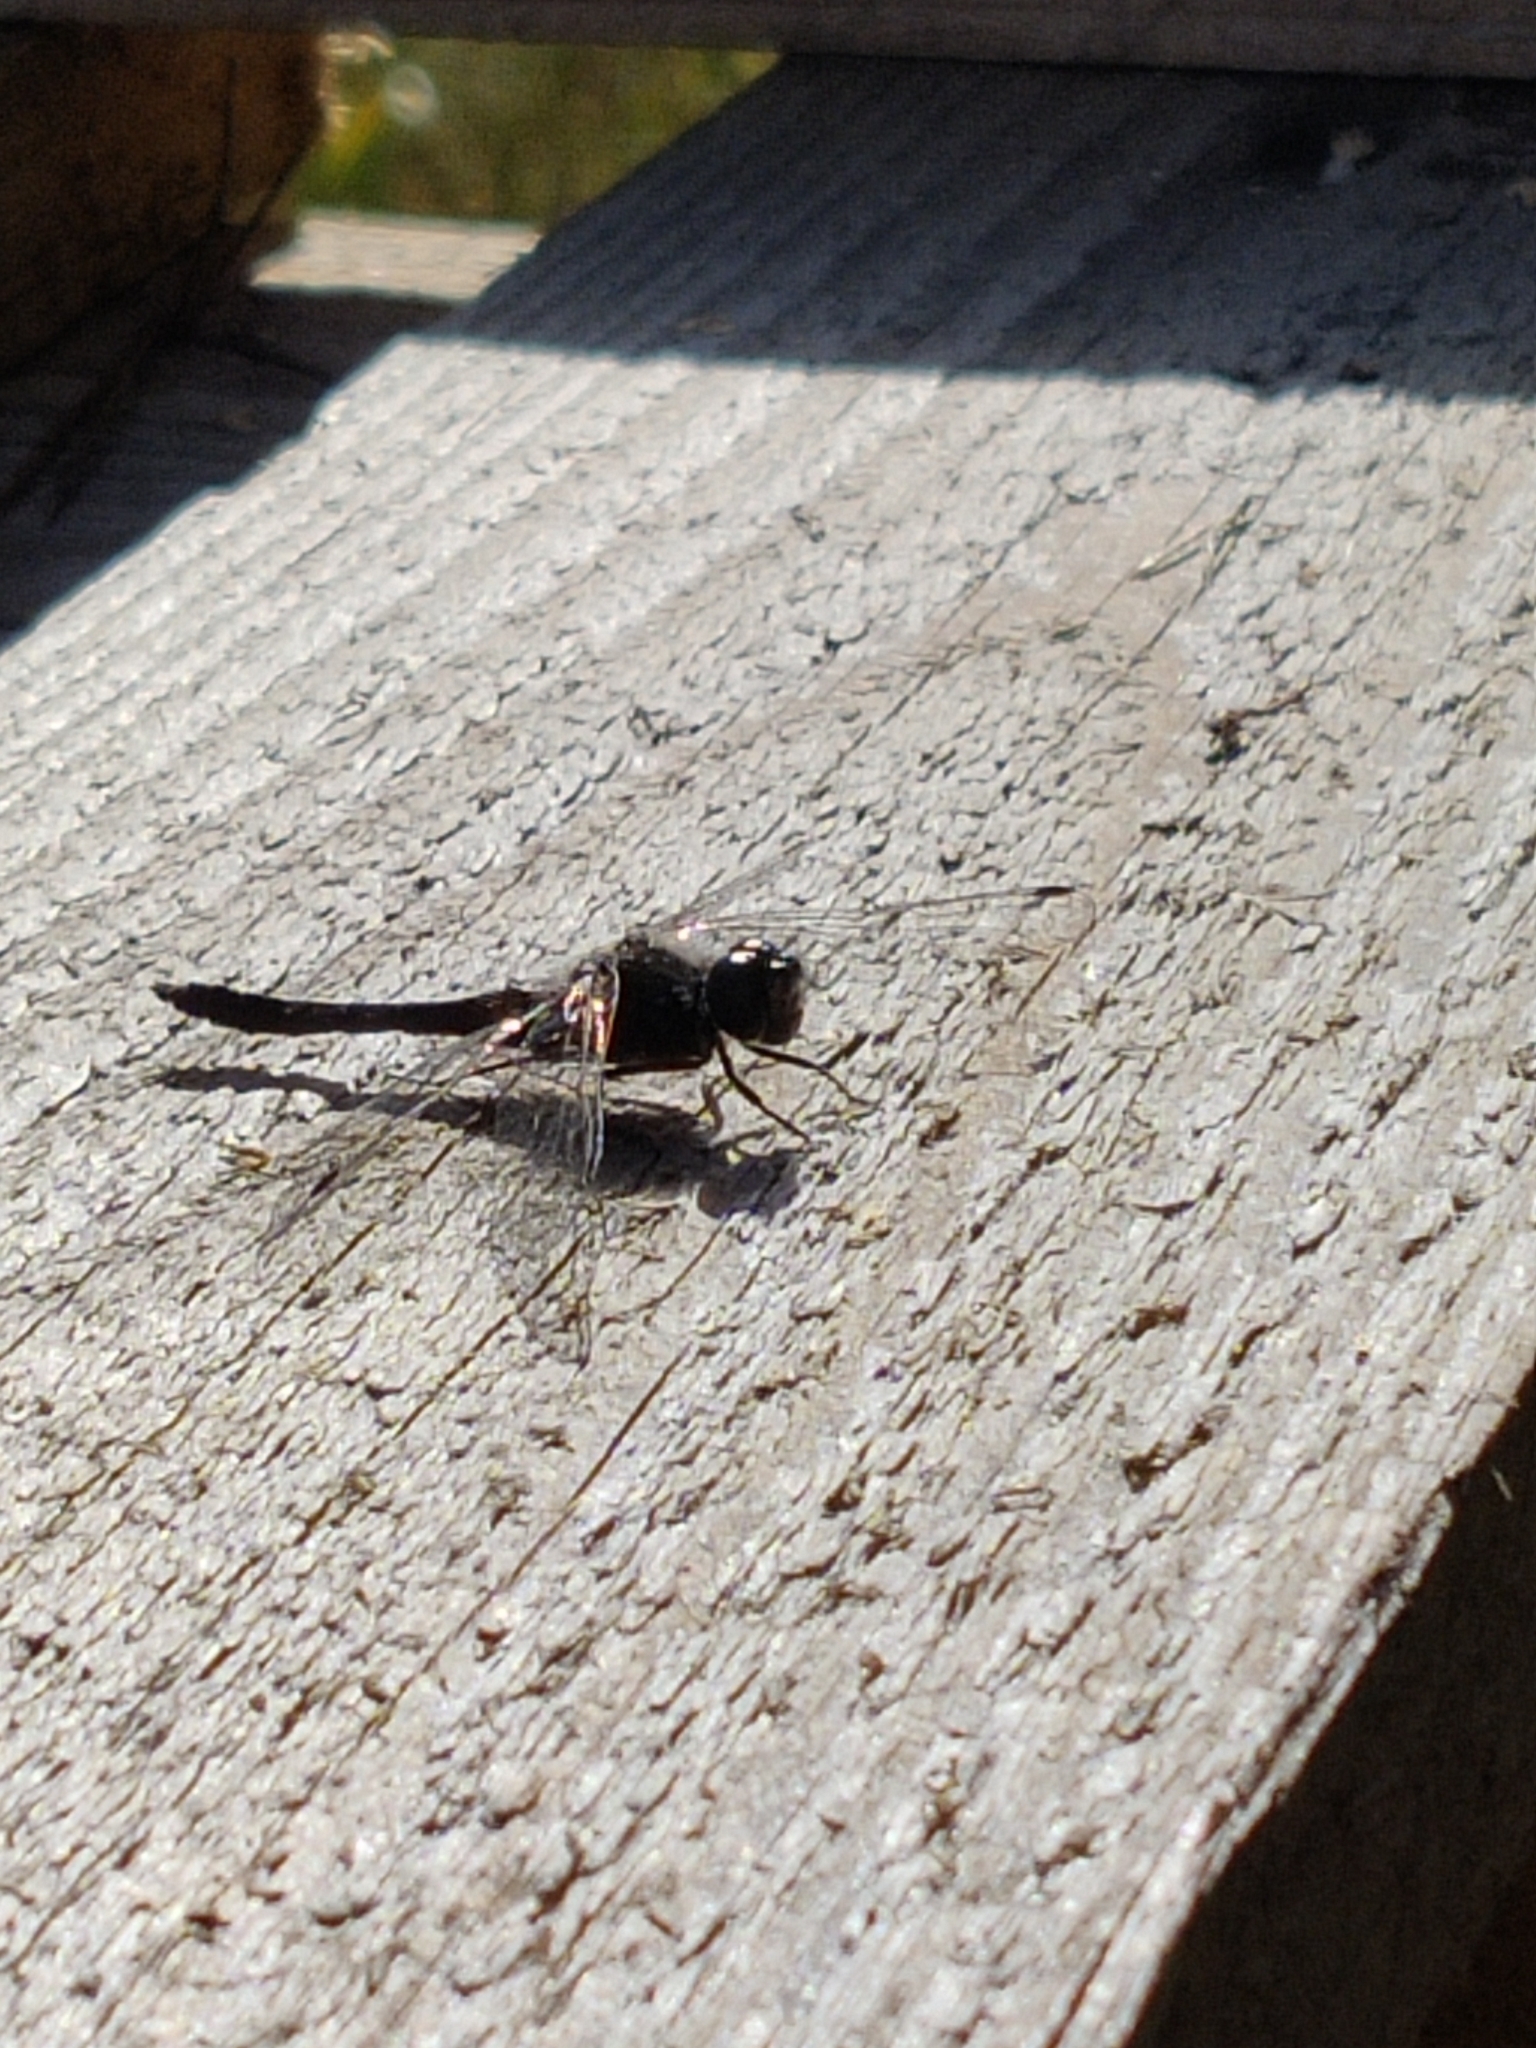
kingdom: Animalia
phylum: Arthropoda
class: Insecta
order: Odonata
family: Libellulidae
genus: Sympetrum
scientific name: Sympetrum danae
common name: Black darter
